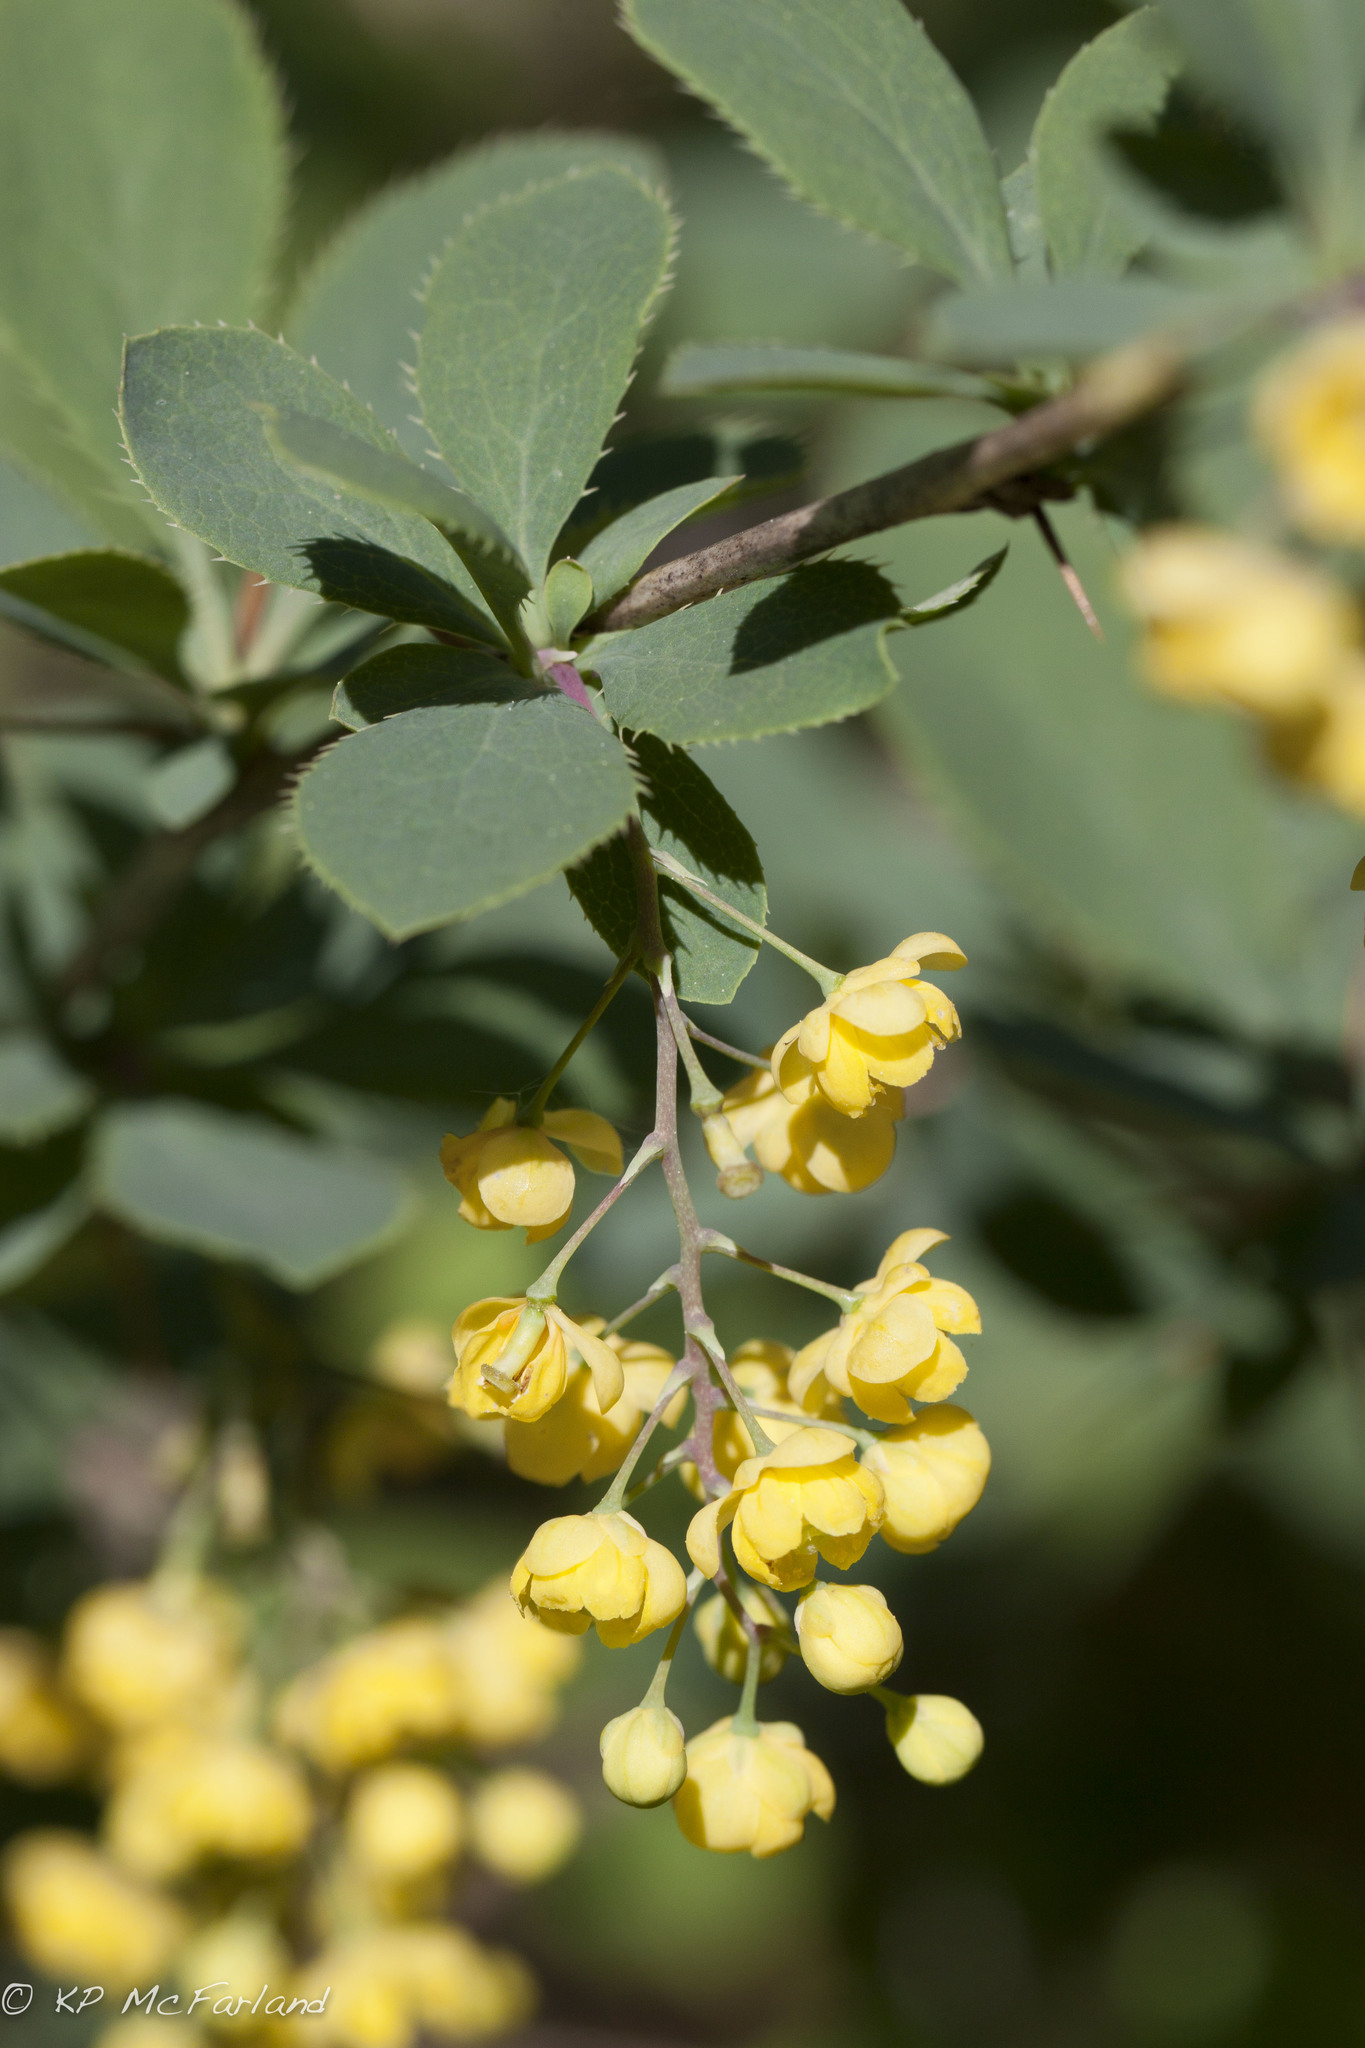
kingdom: Plantae
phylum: Tracheophyta
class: Magnoliopsida
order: Ranunculales
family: Berberidaceae
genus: Berberis
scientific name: Berberis vulgaris
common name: Barberry
